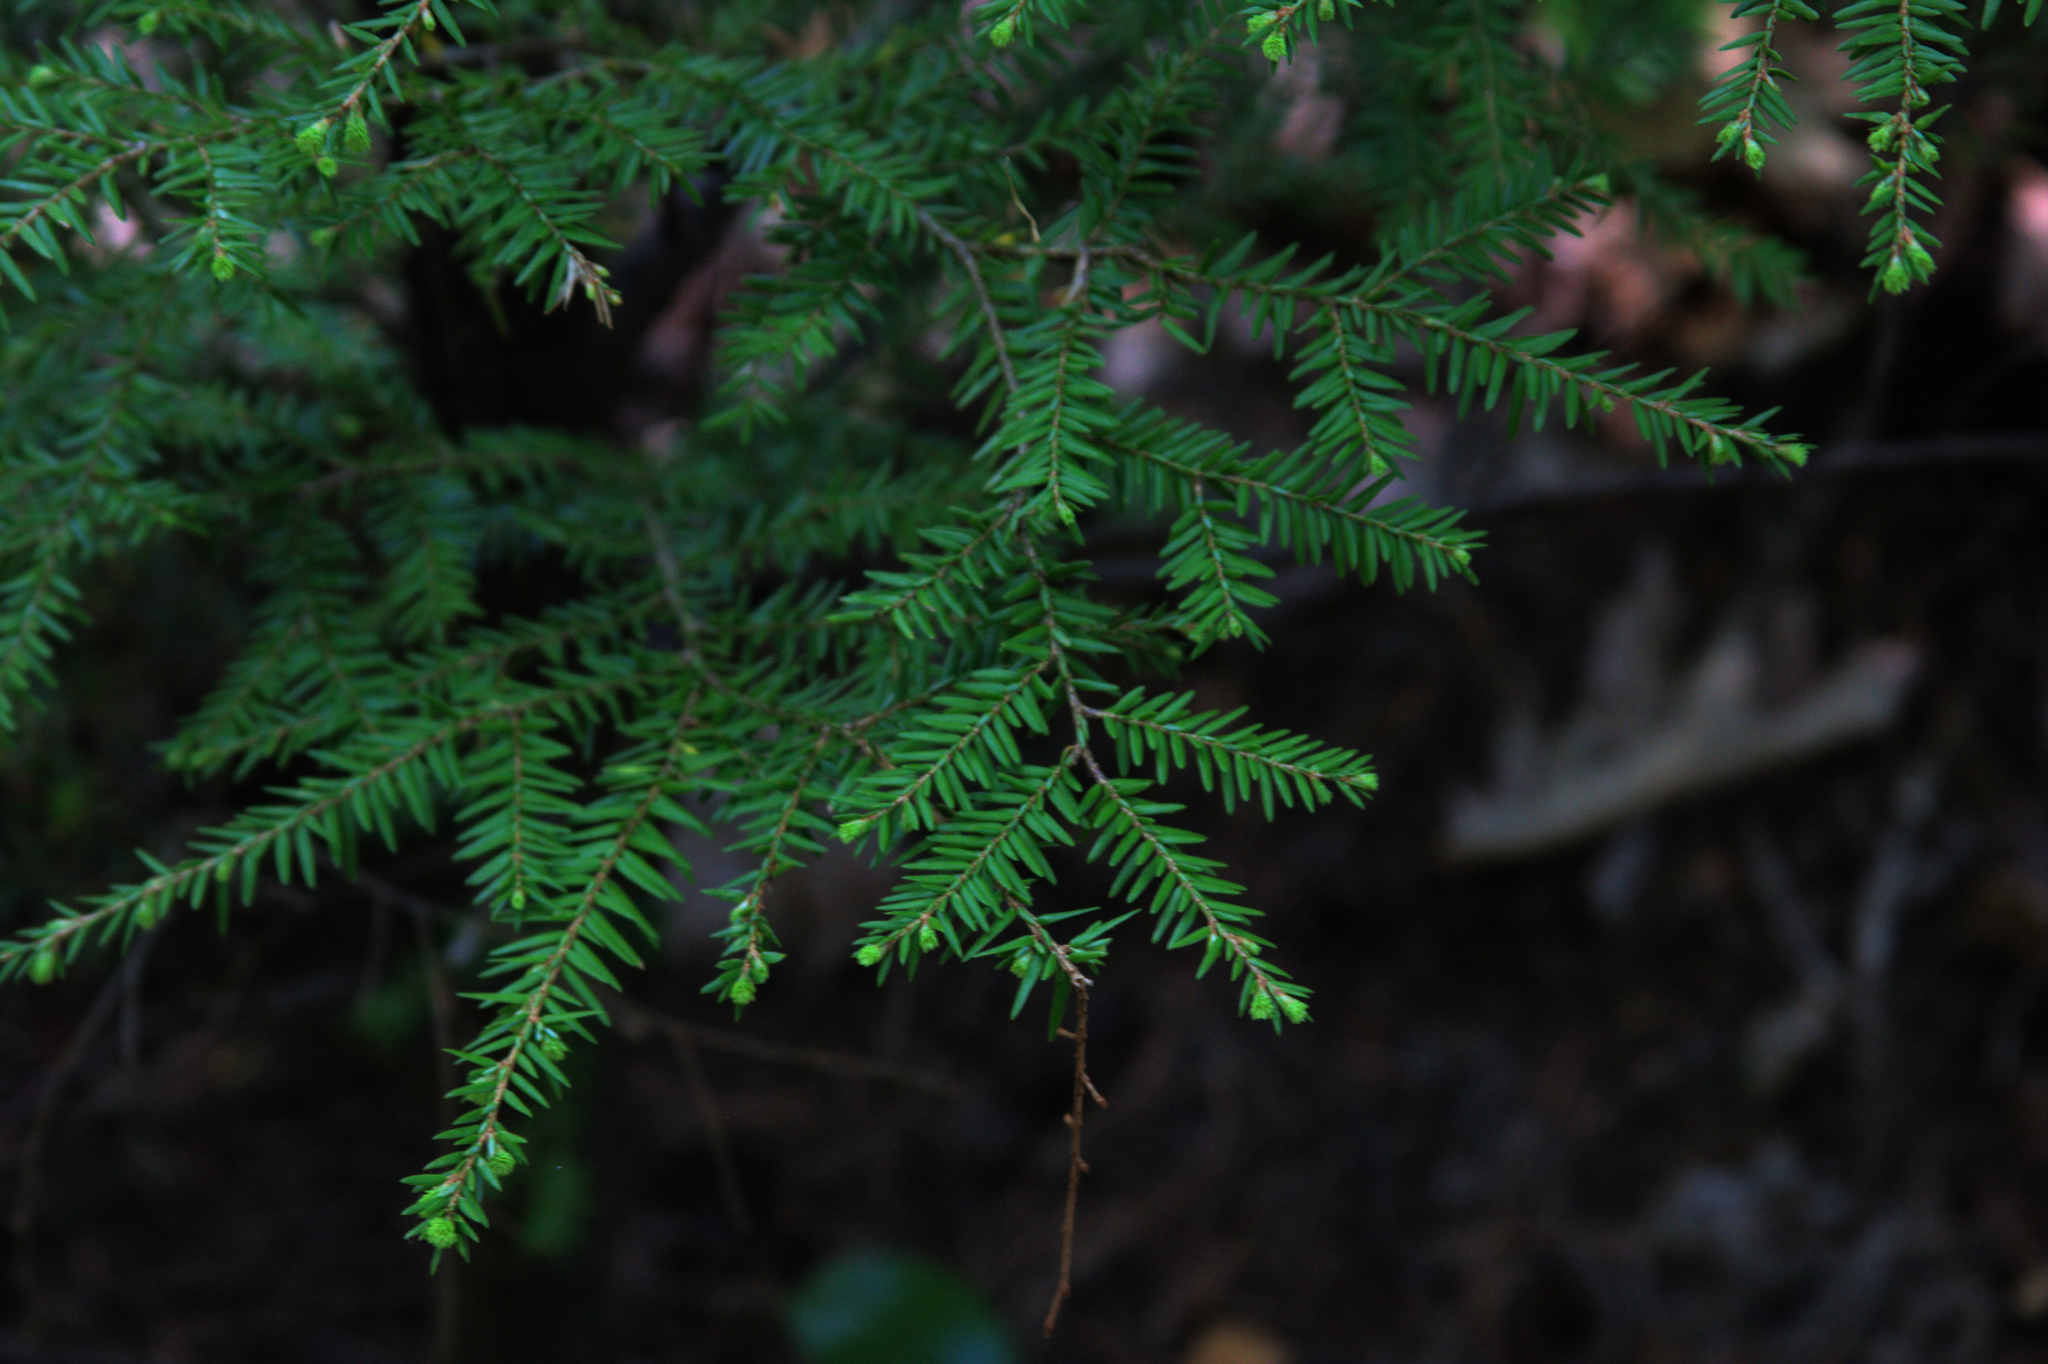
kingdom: Plantae
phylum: Tracheophyta
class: Pinopsida
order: Pinales
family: Pinaceae
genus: Tsuga
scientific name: Tsuga canadensis
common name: Eastern hemlock
